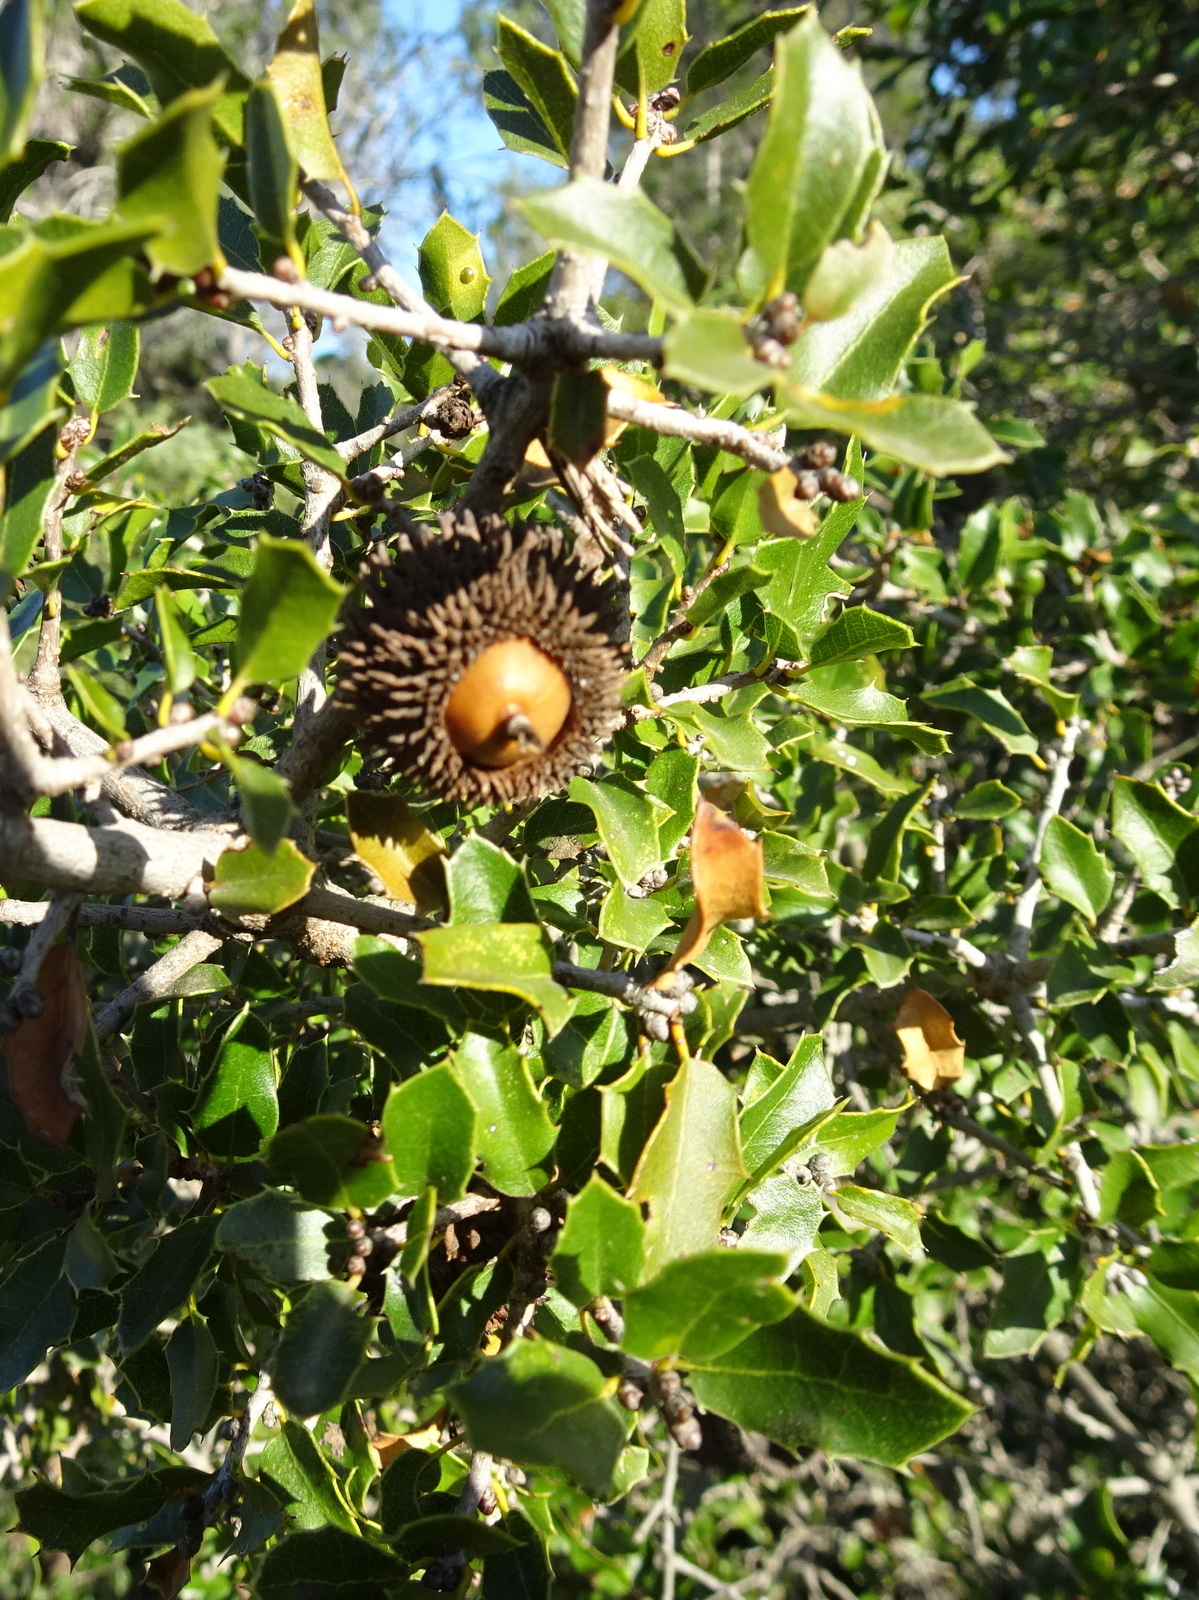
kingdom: Plantae
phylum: Tracheophyta
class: Magnoliopsida
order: Fagales
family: Fagaceae
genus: Quercus
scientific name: Quercus coccifera
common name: Kermes oak
